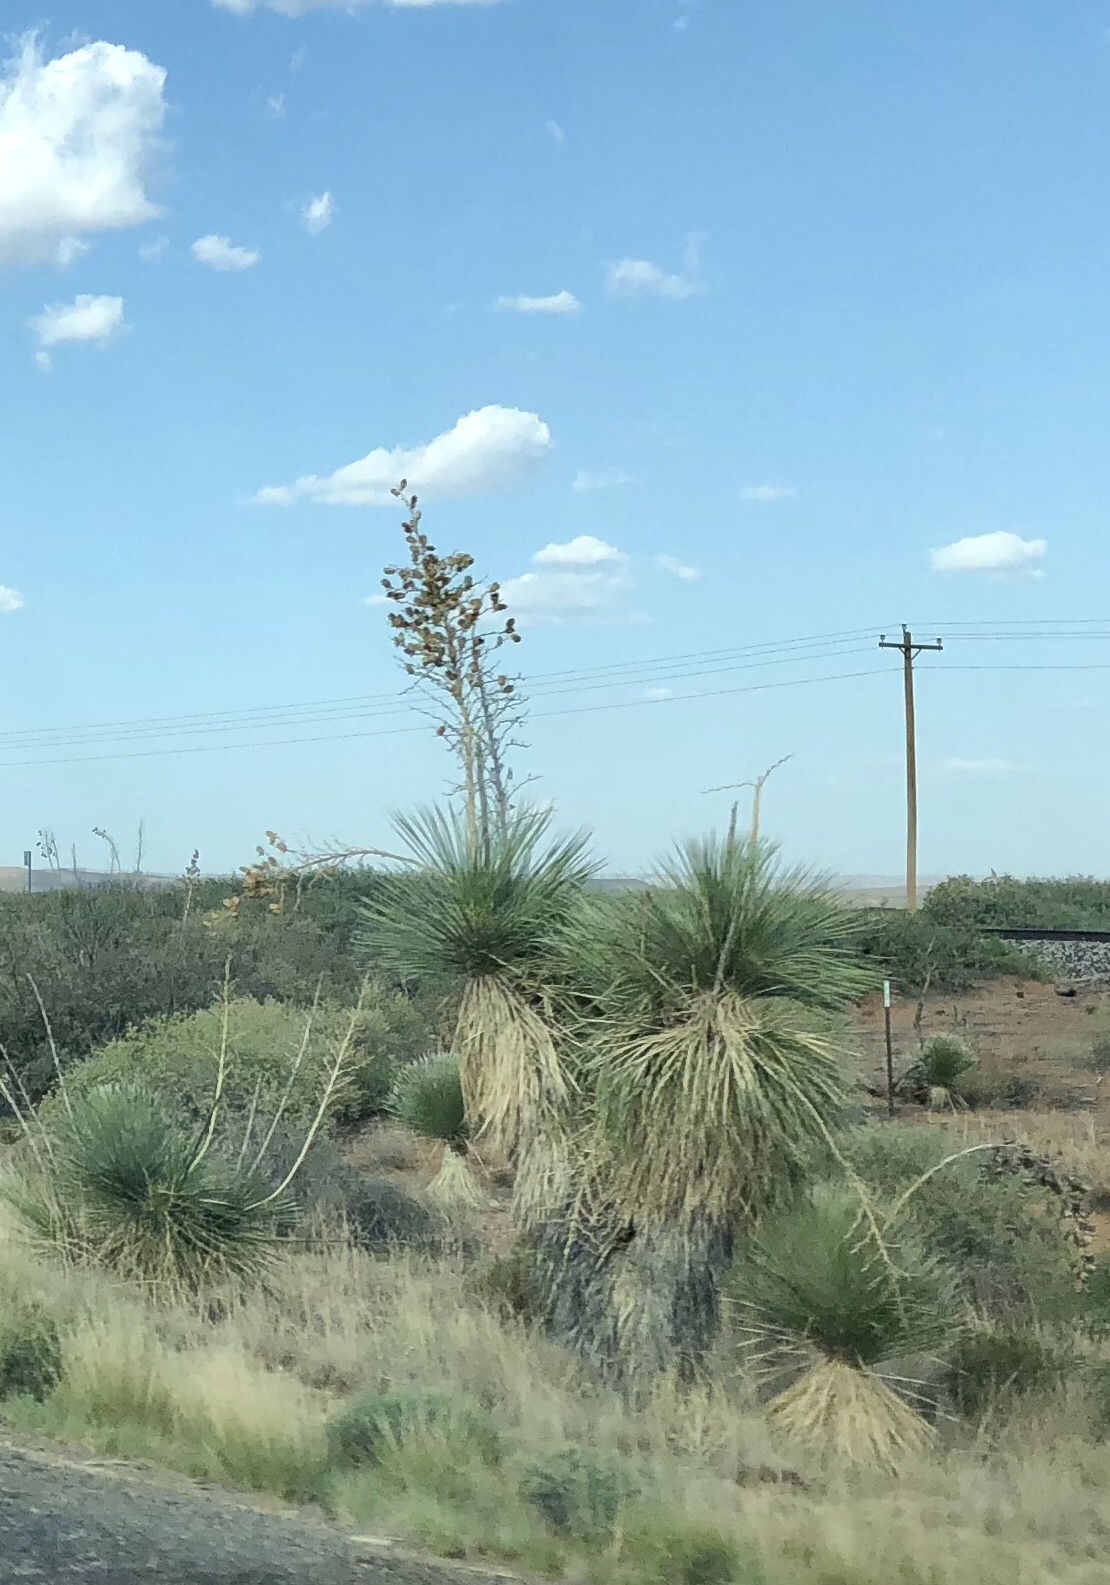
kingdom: Plantae
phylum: Tracheophyta
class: Liliopsida
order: Asparagales
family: Asparagaceae
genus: Yucca
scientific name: Yucca elata
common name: Palmella
